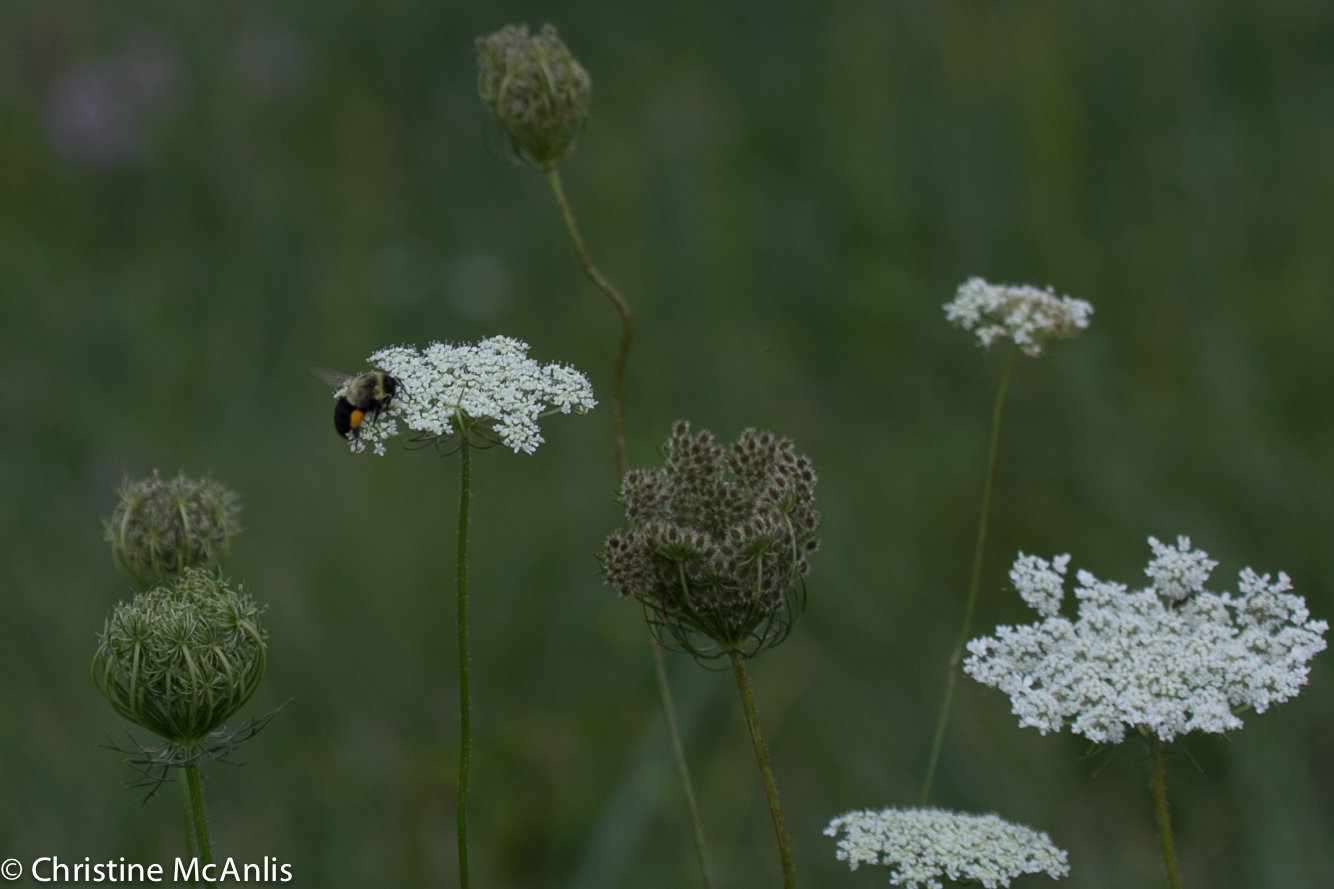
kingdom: Animalia
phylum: Arthropoda
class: Insecta
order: Hymenoptera
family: Apidae
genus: Bombus
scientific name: Bombus impatiens
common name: Common eastern bumble bee
